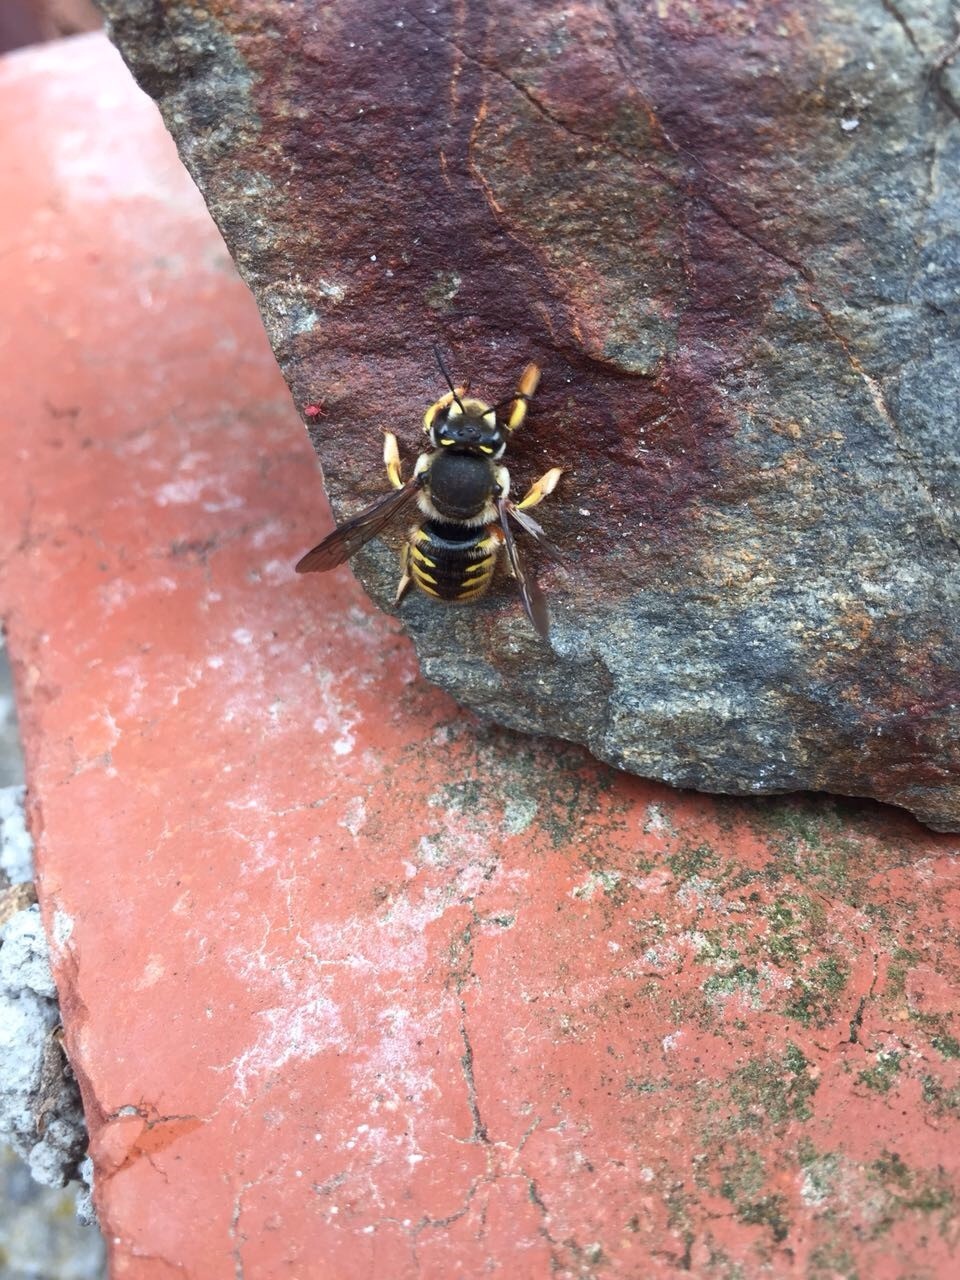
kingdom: Animalia
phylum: Arthropoda
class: Insecta
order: Hymenoptera
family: Megachilidae
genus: Anthidium
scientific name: Anthidium manicatum
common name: Wool carder bee
